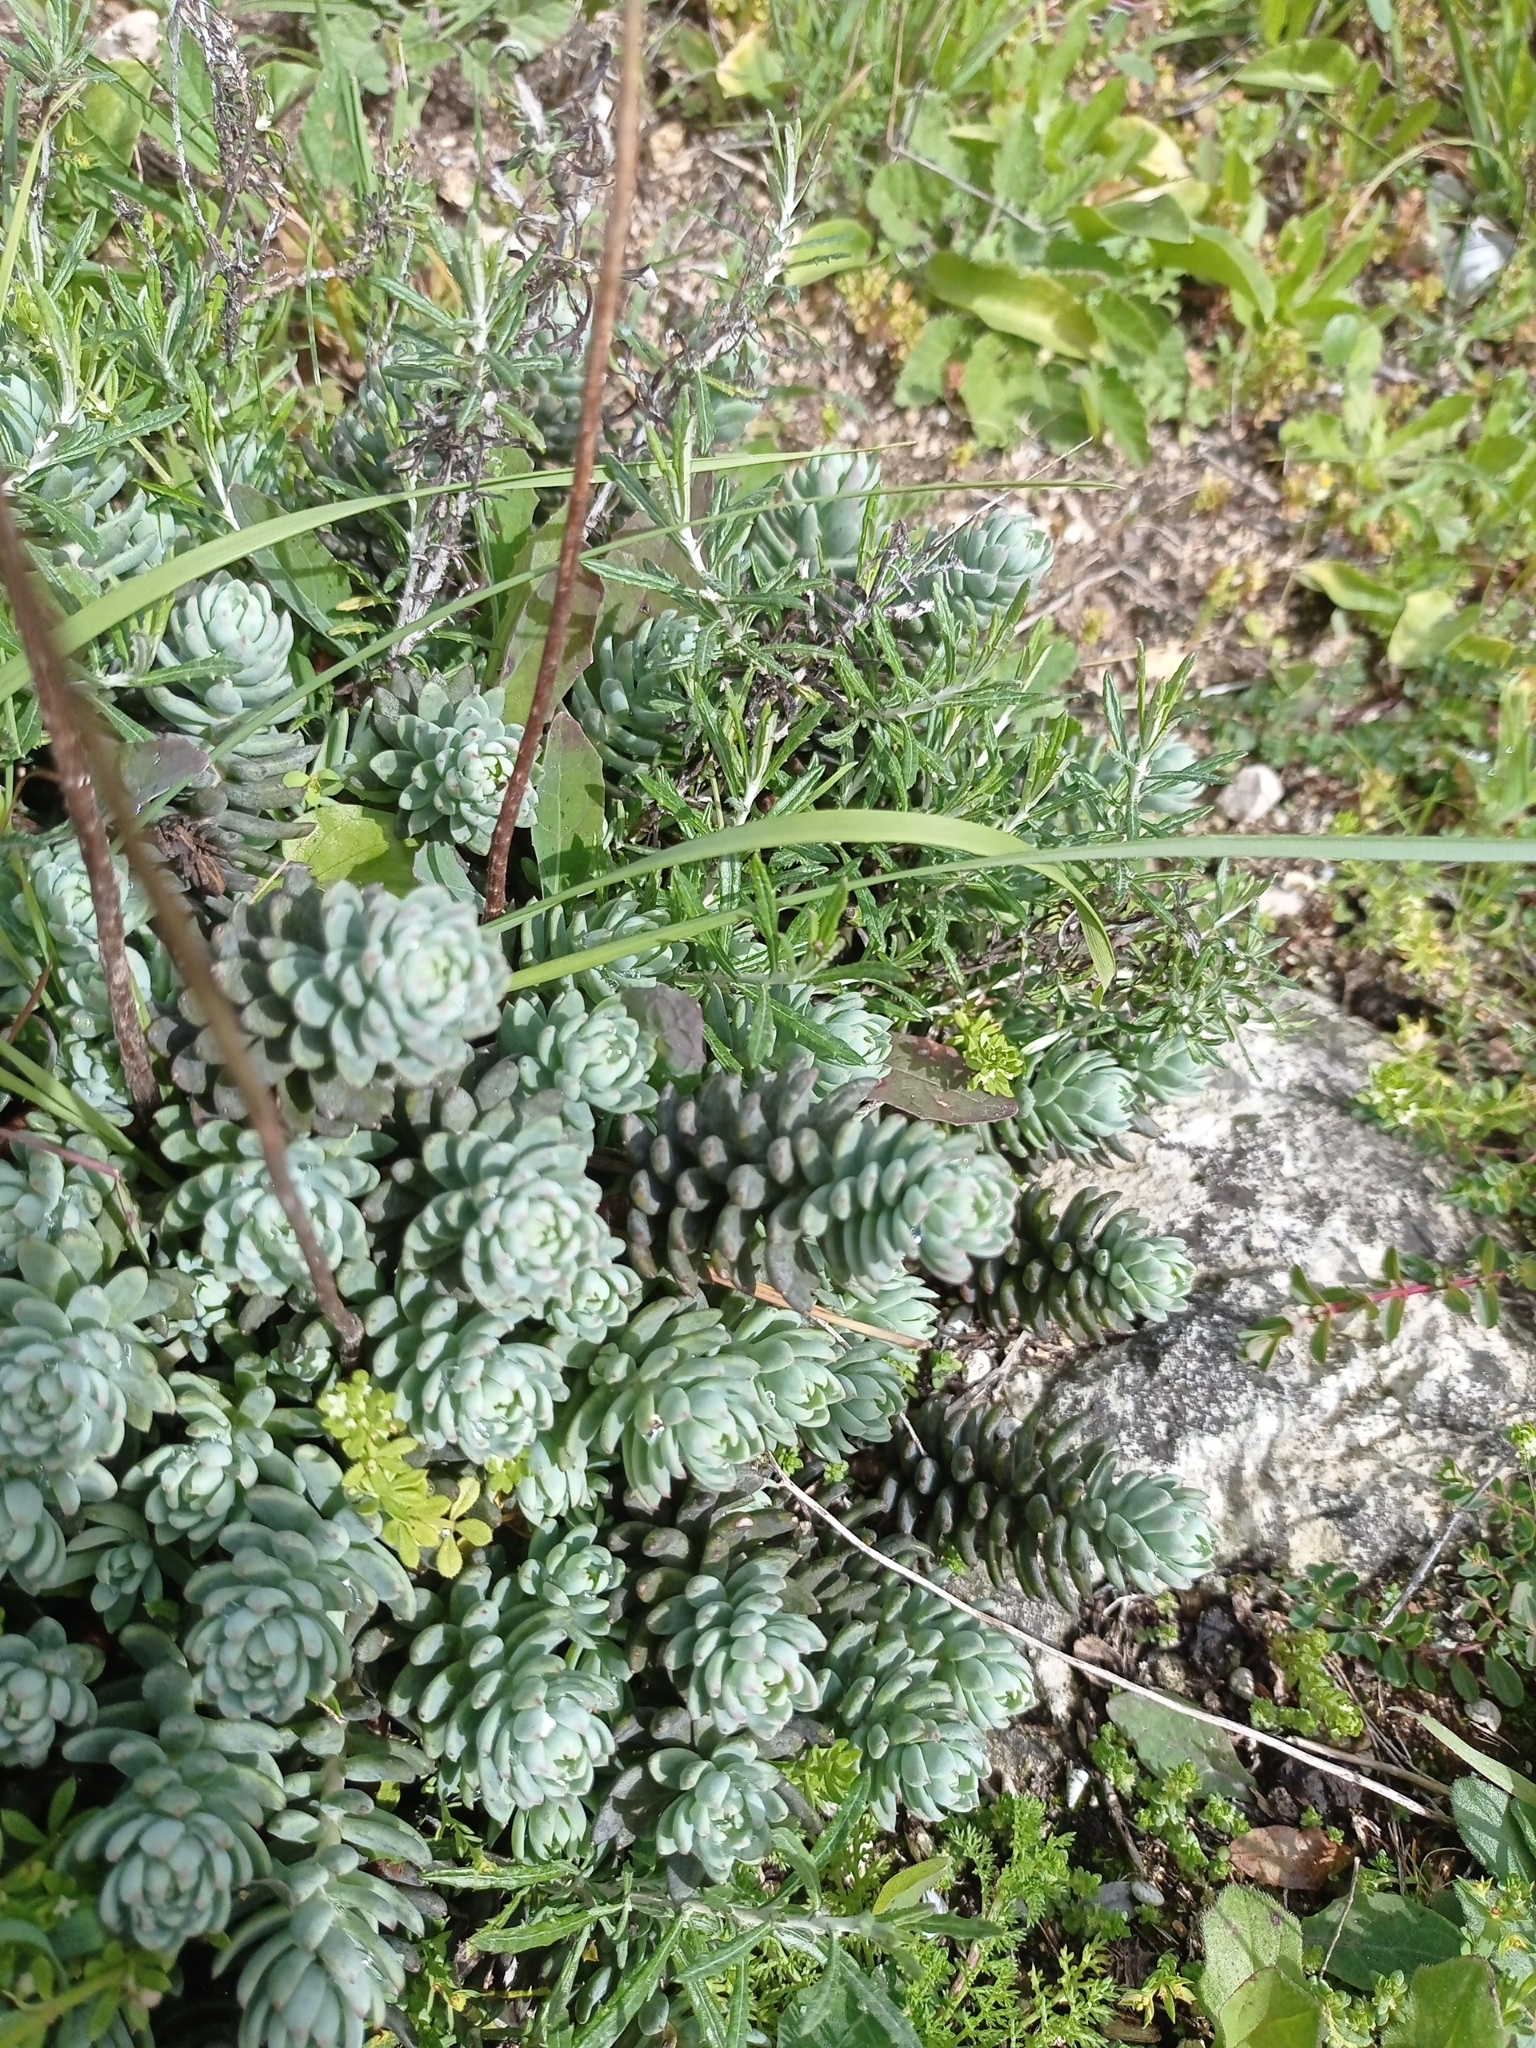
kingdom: Plantae
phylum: Tracheophyta
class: Magnoliopsida
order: Saxifragales
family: Crassulaceae
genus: Petrosedum
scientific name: Petrosedum sediforme
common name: Pale stonecrop
